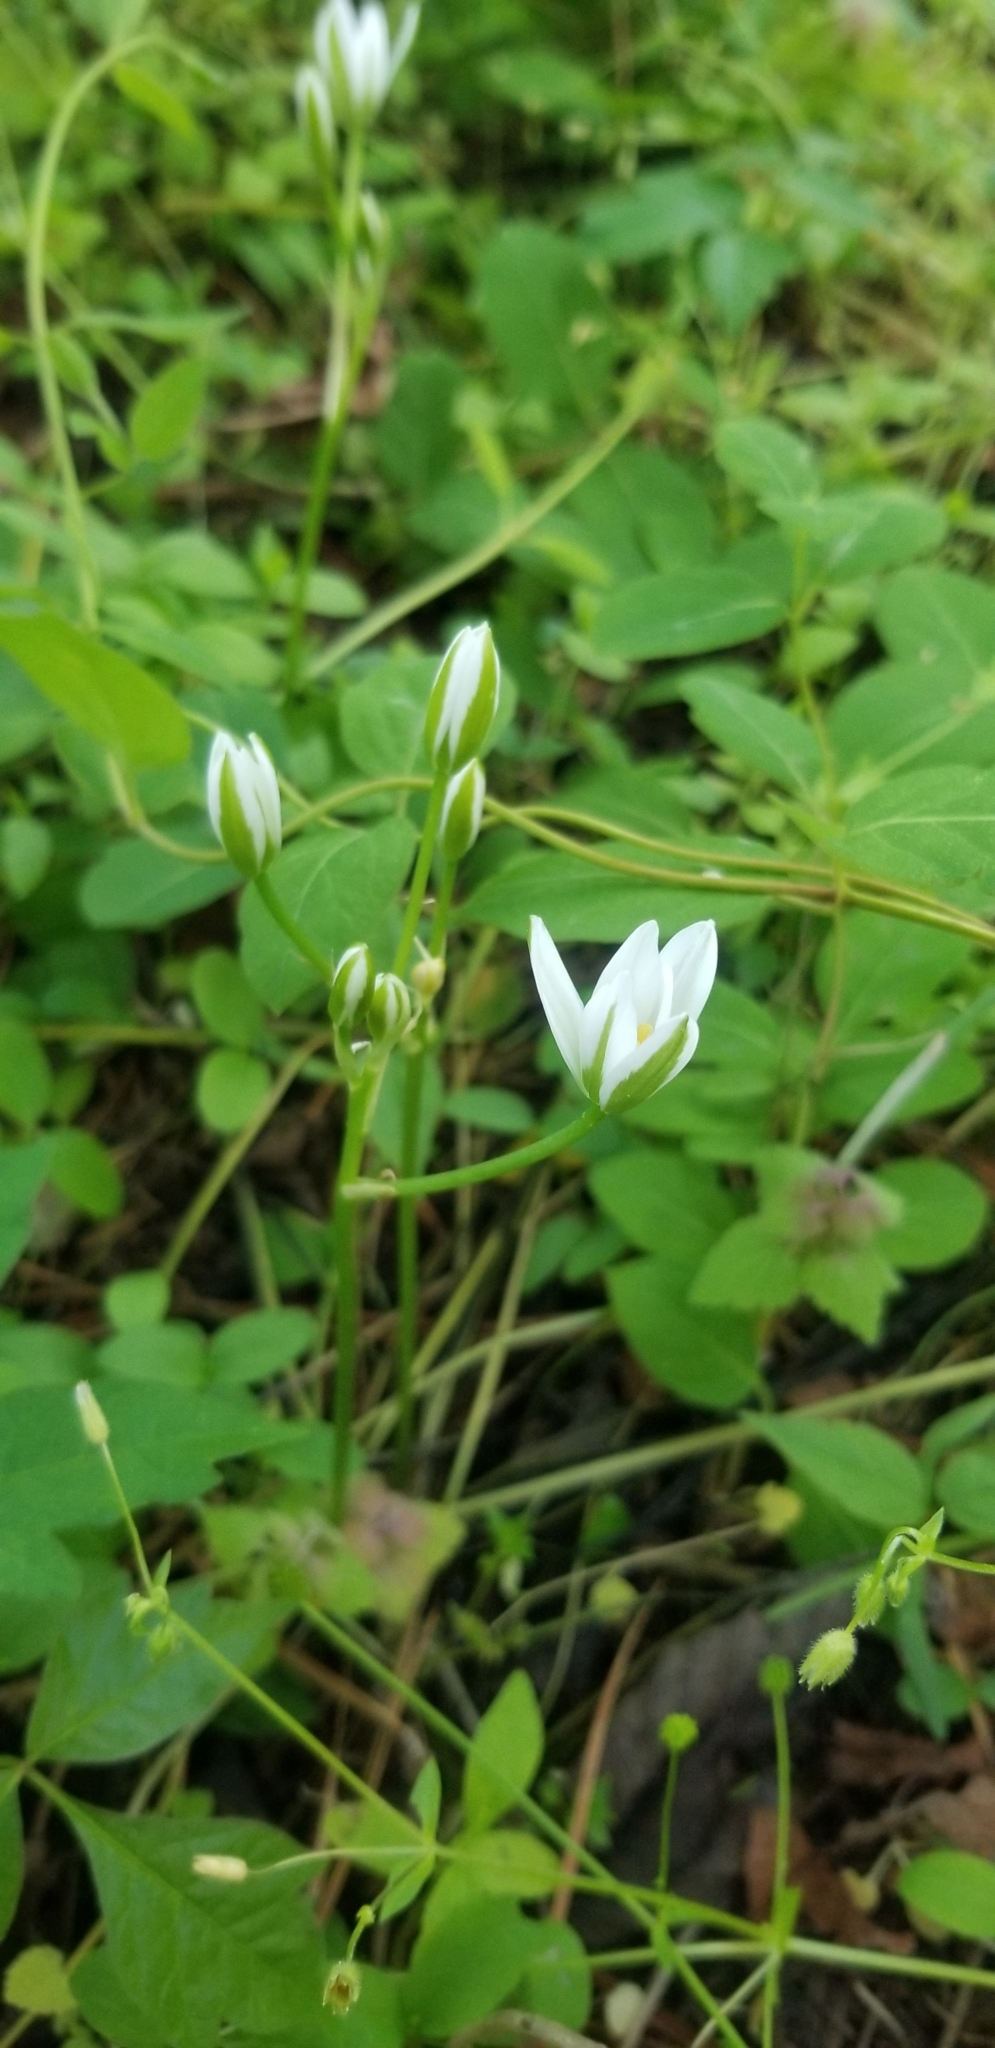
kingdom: Plantae
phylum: Tracheophyta
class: Liliopsida
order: Asparagales
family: Asparagaceae
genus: Ornithogalum
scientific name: Ornithogalum umbellatum
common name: Garden star-of-bethlehem
